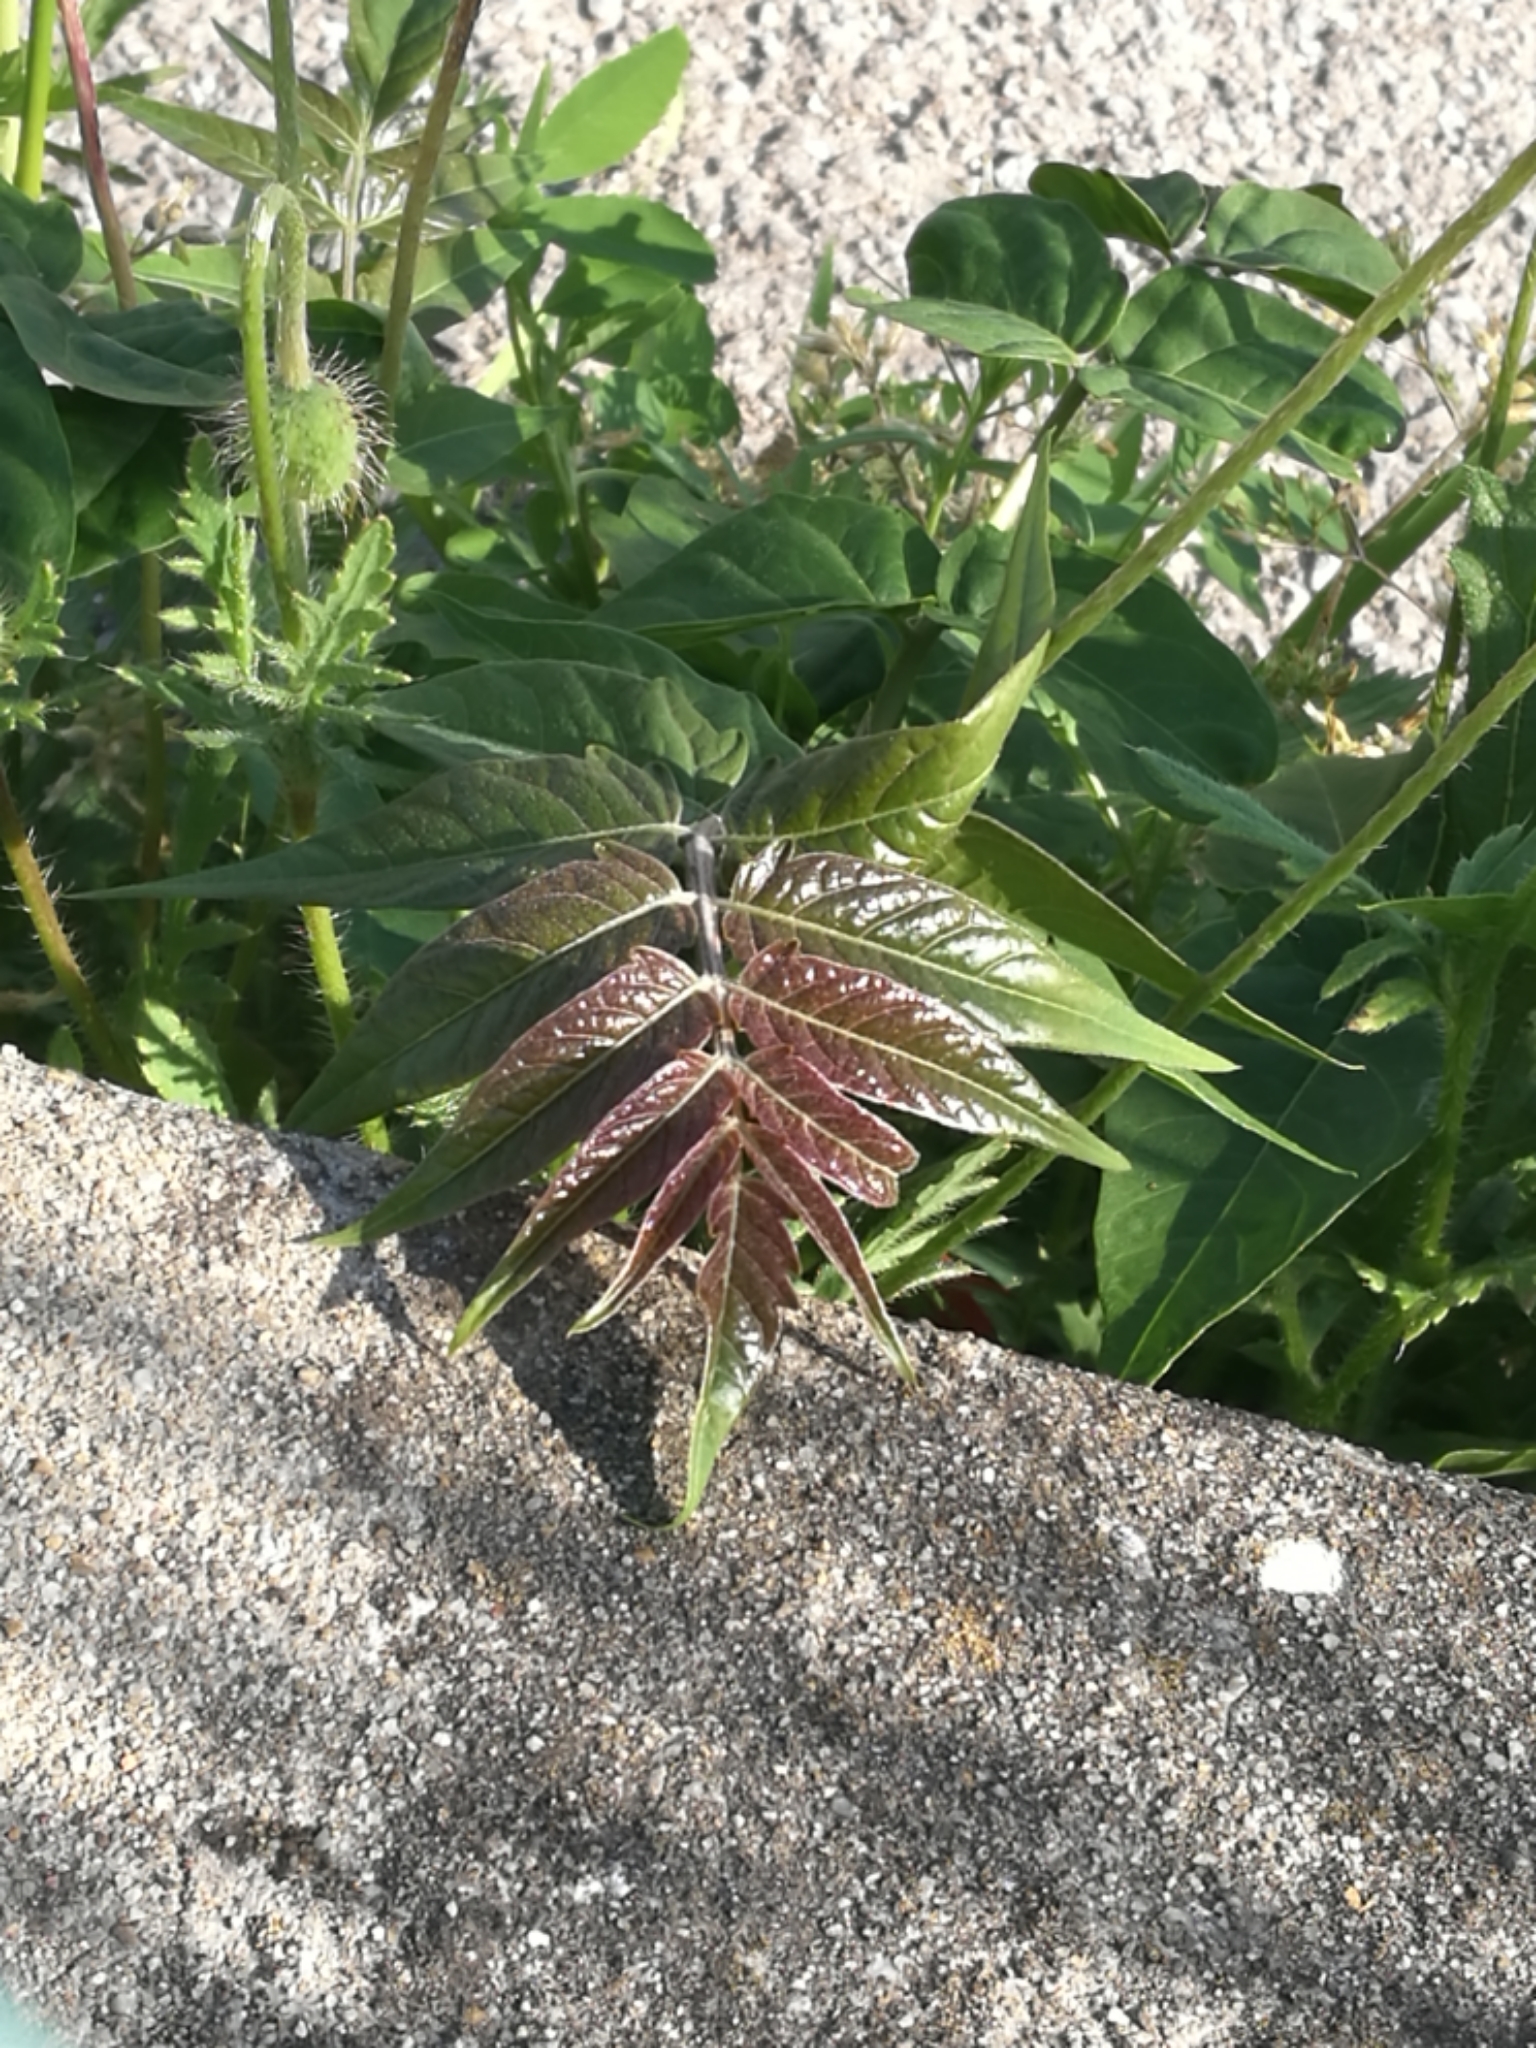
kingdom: Plantae
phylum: Tracheophyta
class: Magnoliopsida
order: Sapindales
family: Simaroubaceae
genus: Ailanthus
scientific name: Ailanthus altissima
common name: Tree-of-heaven
